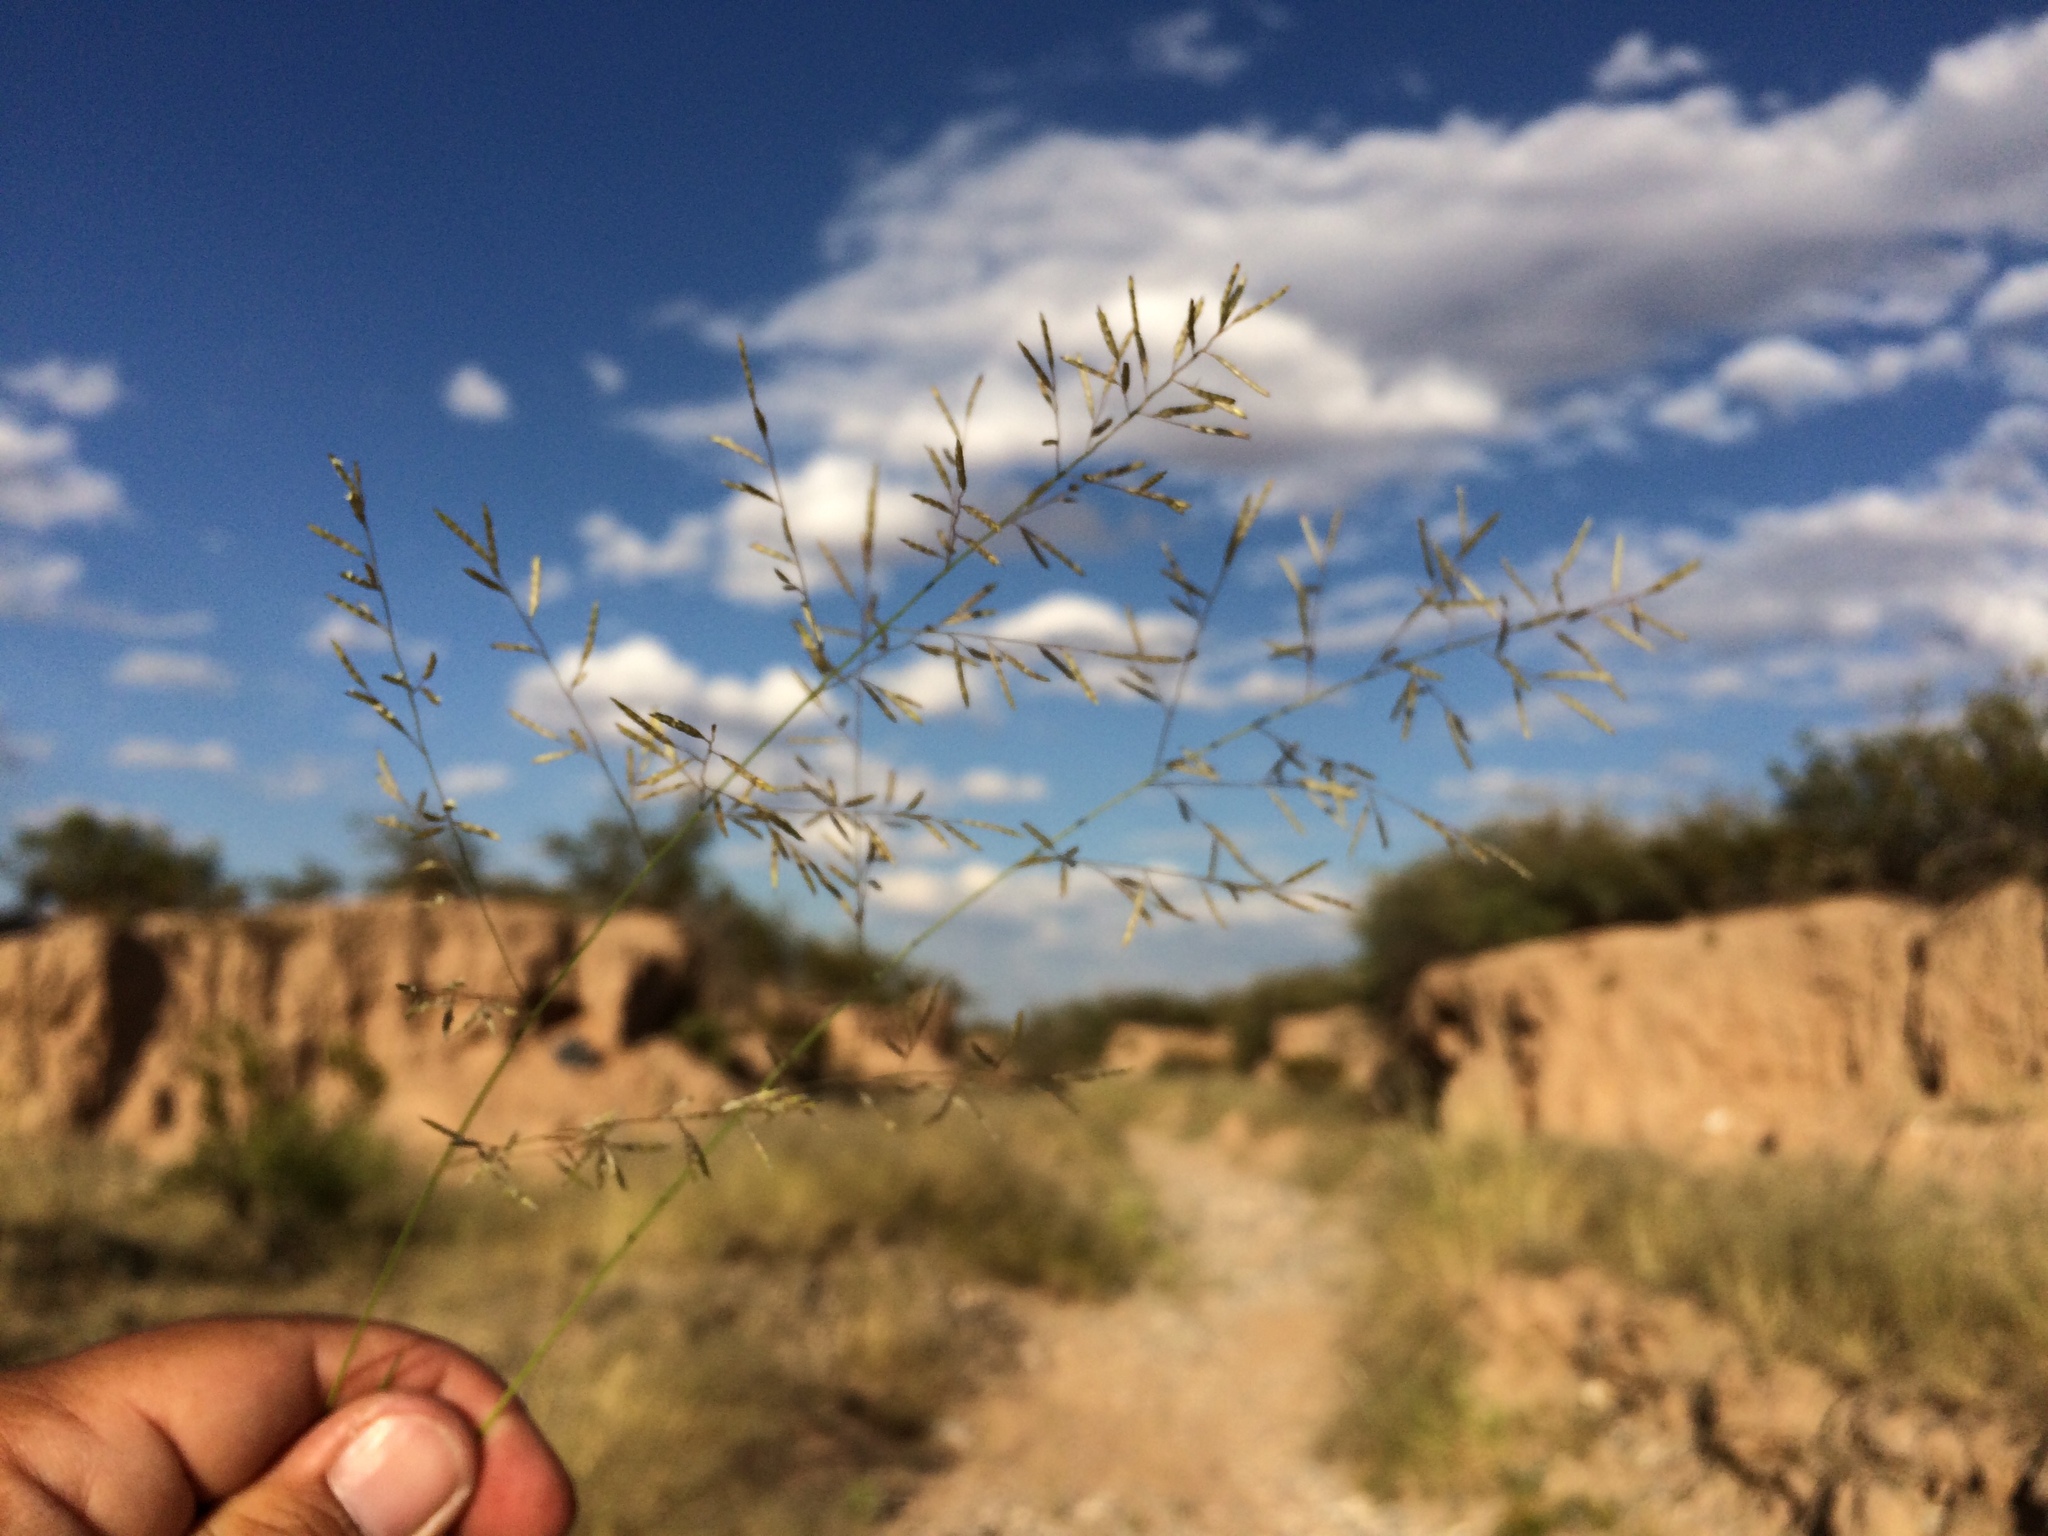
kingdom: Plantae
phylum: Tracheophyta
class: Liliopsida
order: Poales
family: Poaceae
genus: Eragrostis
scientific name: Eragrostis lehmanniana
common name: Lehmann lovegrass
